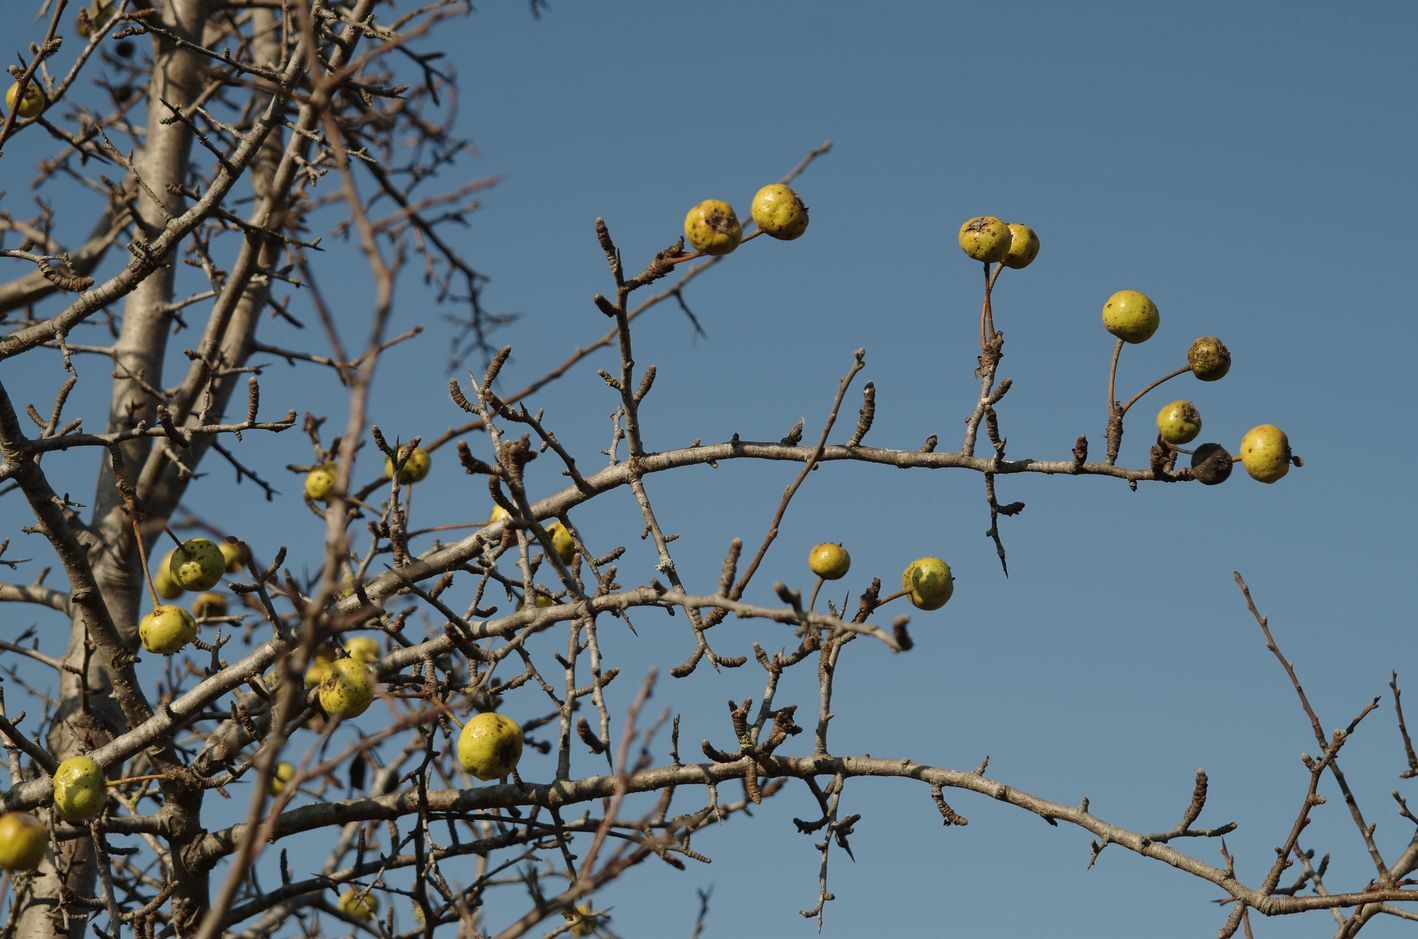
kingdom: Plantae
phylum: Tracheophyta
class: Magnoliopsida
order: Rosales
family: Rosaceae
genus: Pyrus
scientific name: Pyrus nivalis
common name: Snow pear
